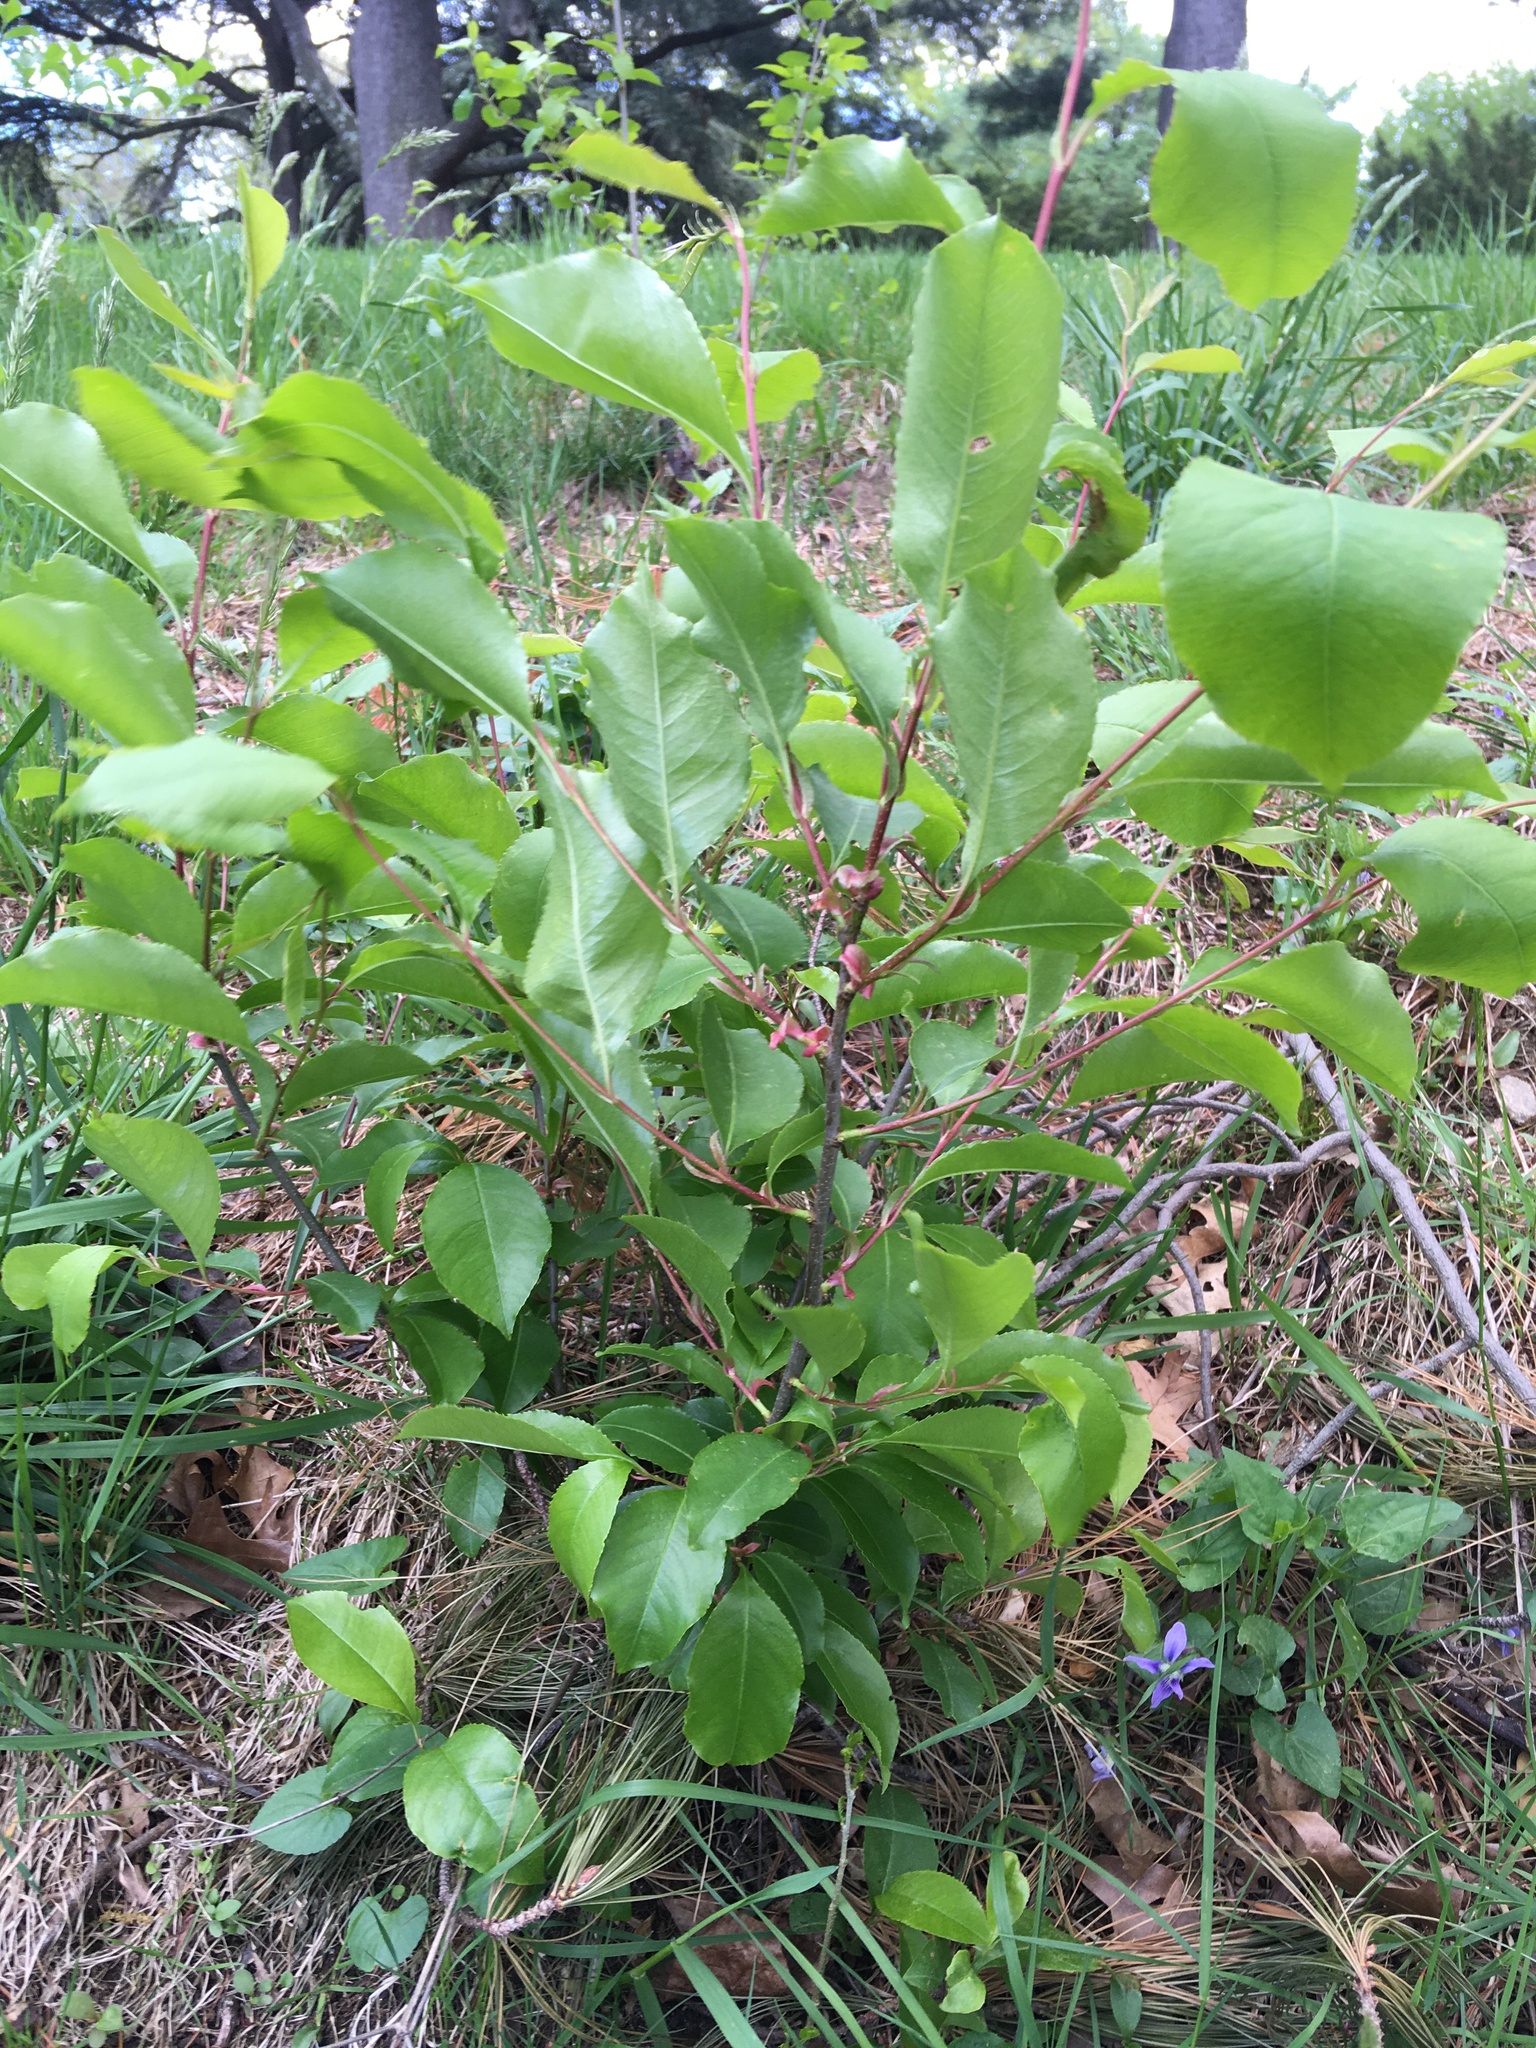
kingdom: Plantae
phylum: Tracheophyta
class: Magnoliopsida
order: Rosales
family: Rosaceae
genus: Prunus
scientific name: Prunus serotina
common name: Black cherry
